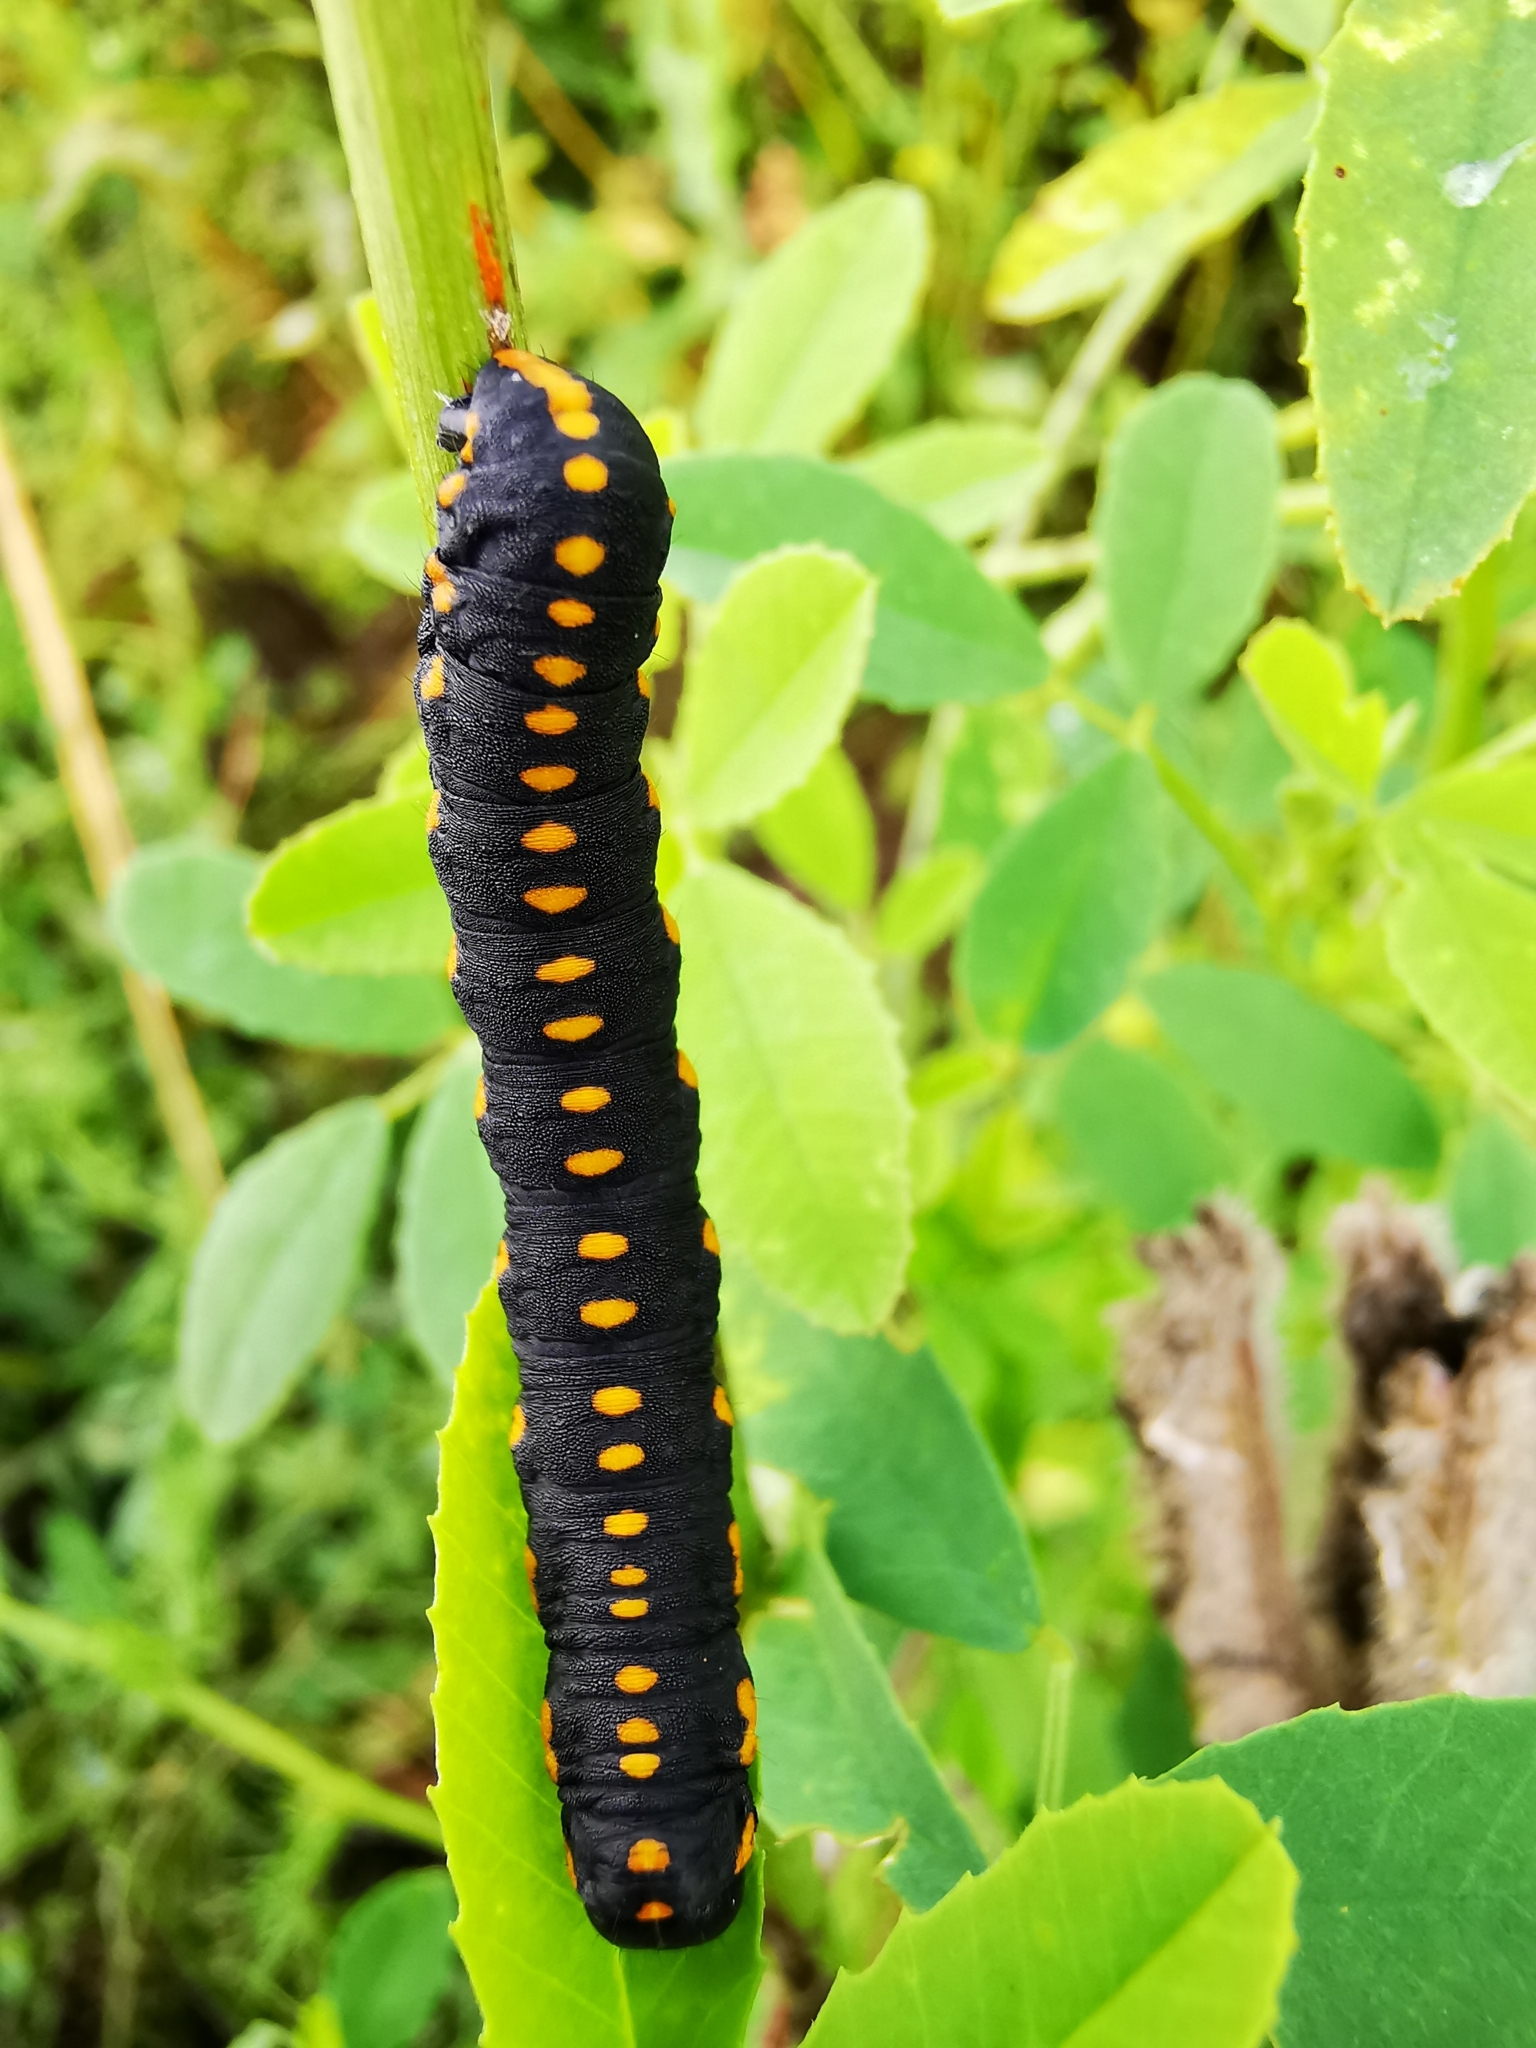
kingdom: Animalia
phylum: Arthropoda
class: Insecta
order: Lepidoptera
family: Noctuidae
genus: Cucullia
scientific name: Cucullia lucifuga
